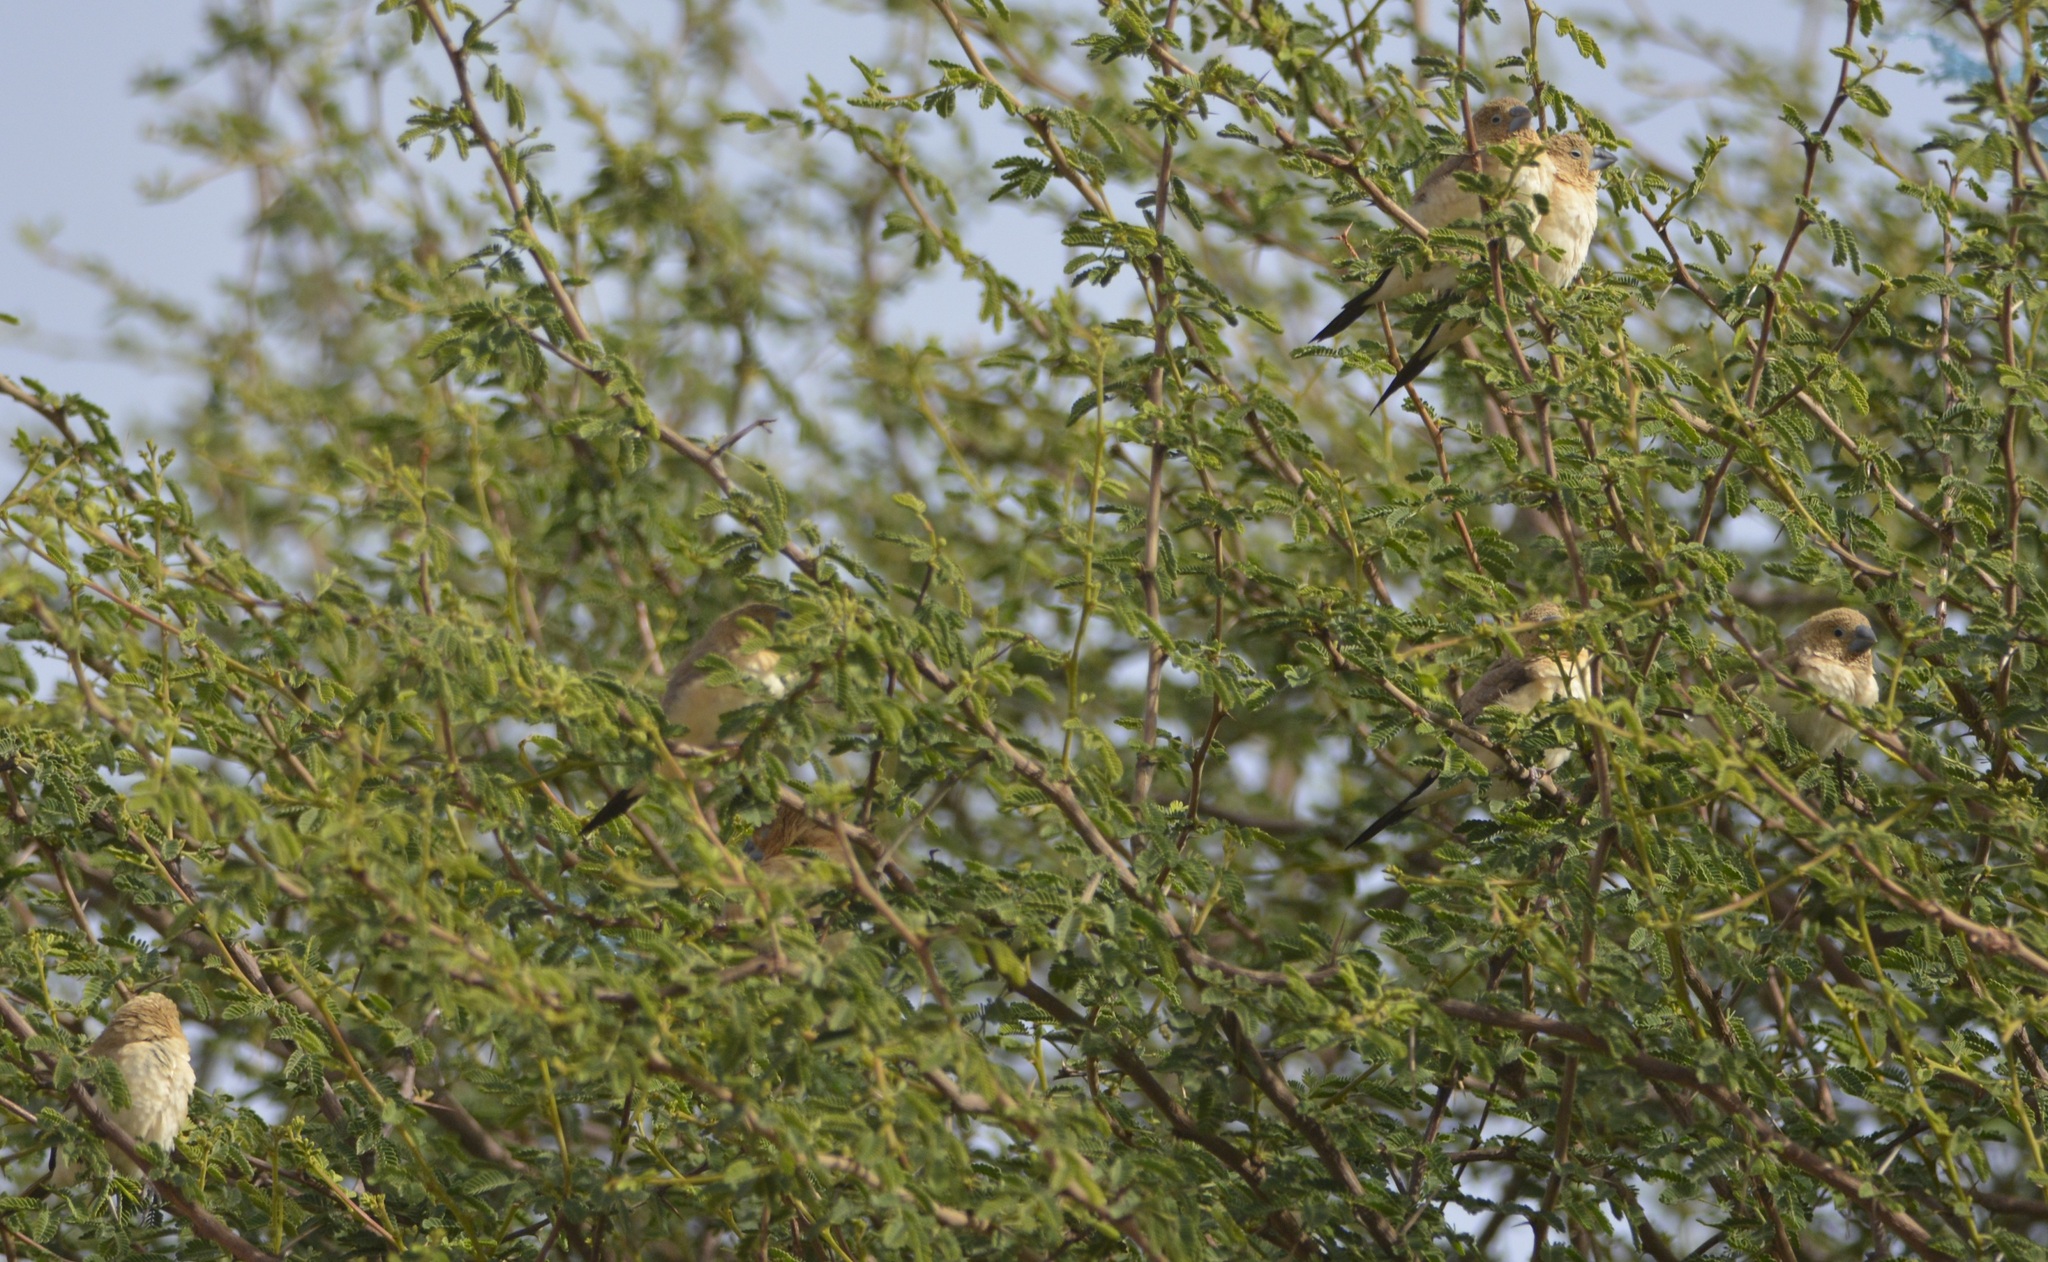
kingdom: Animalia
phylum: Chordata
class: Aves
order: Passeriformes
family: Estrildidae
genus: Euodice
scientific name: Euodice cantans
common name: African silverbill
